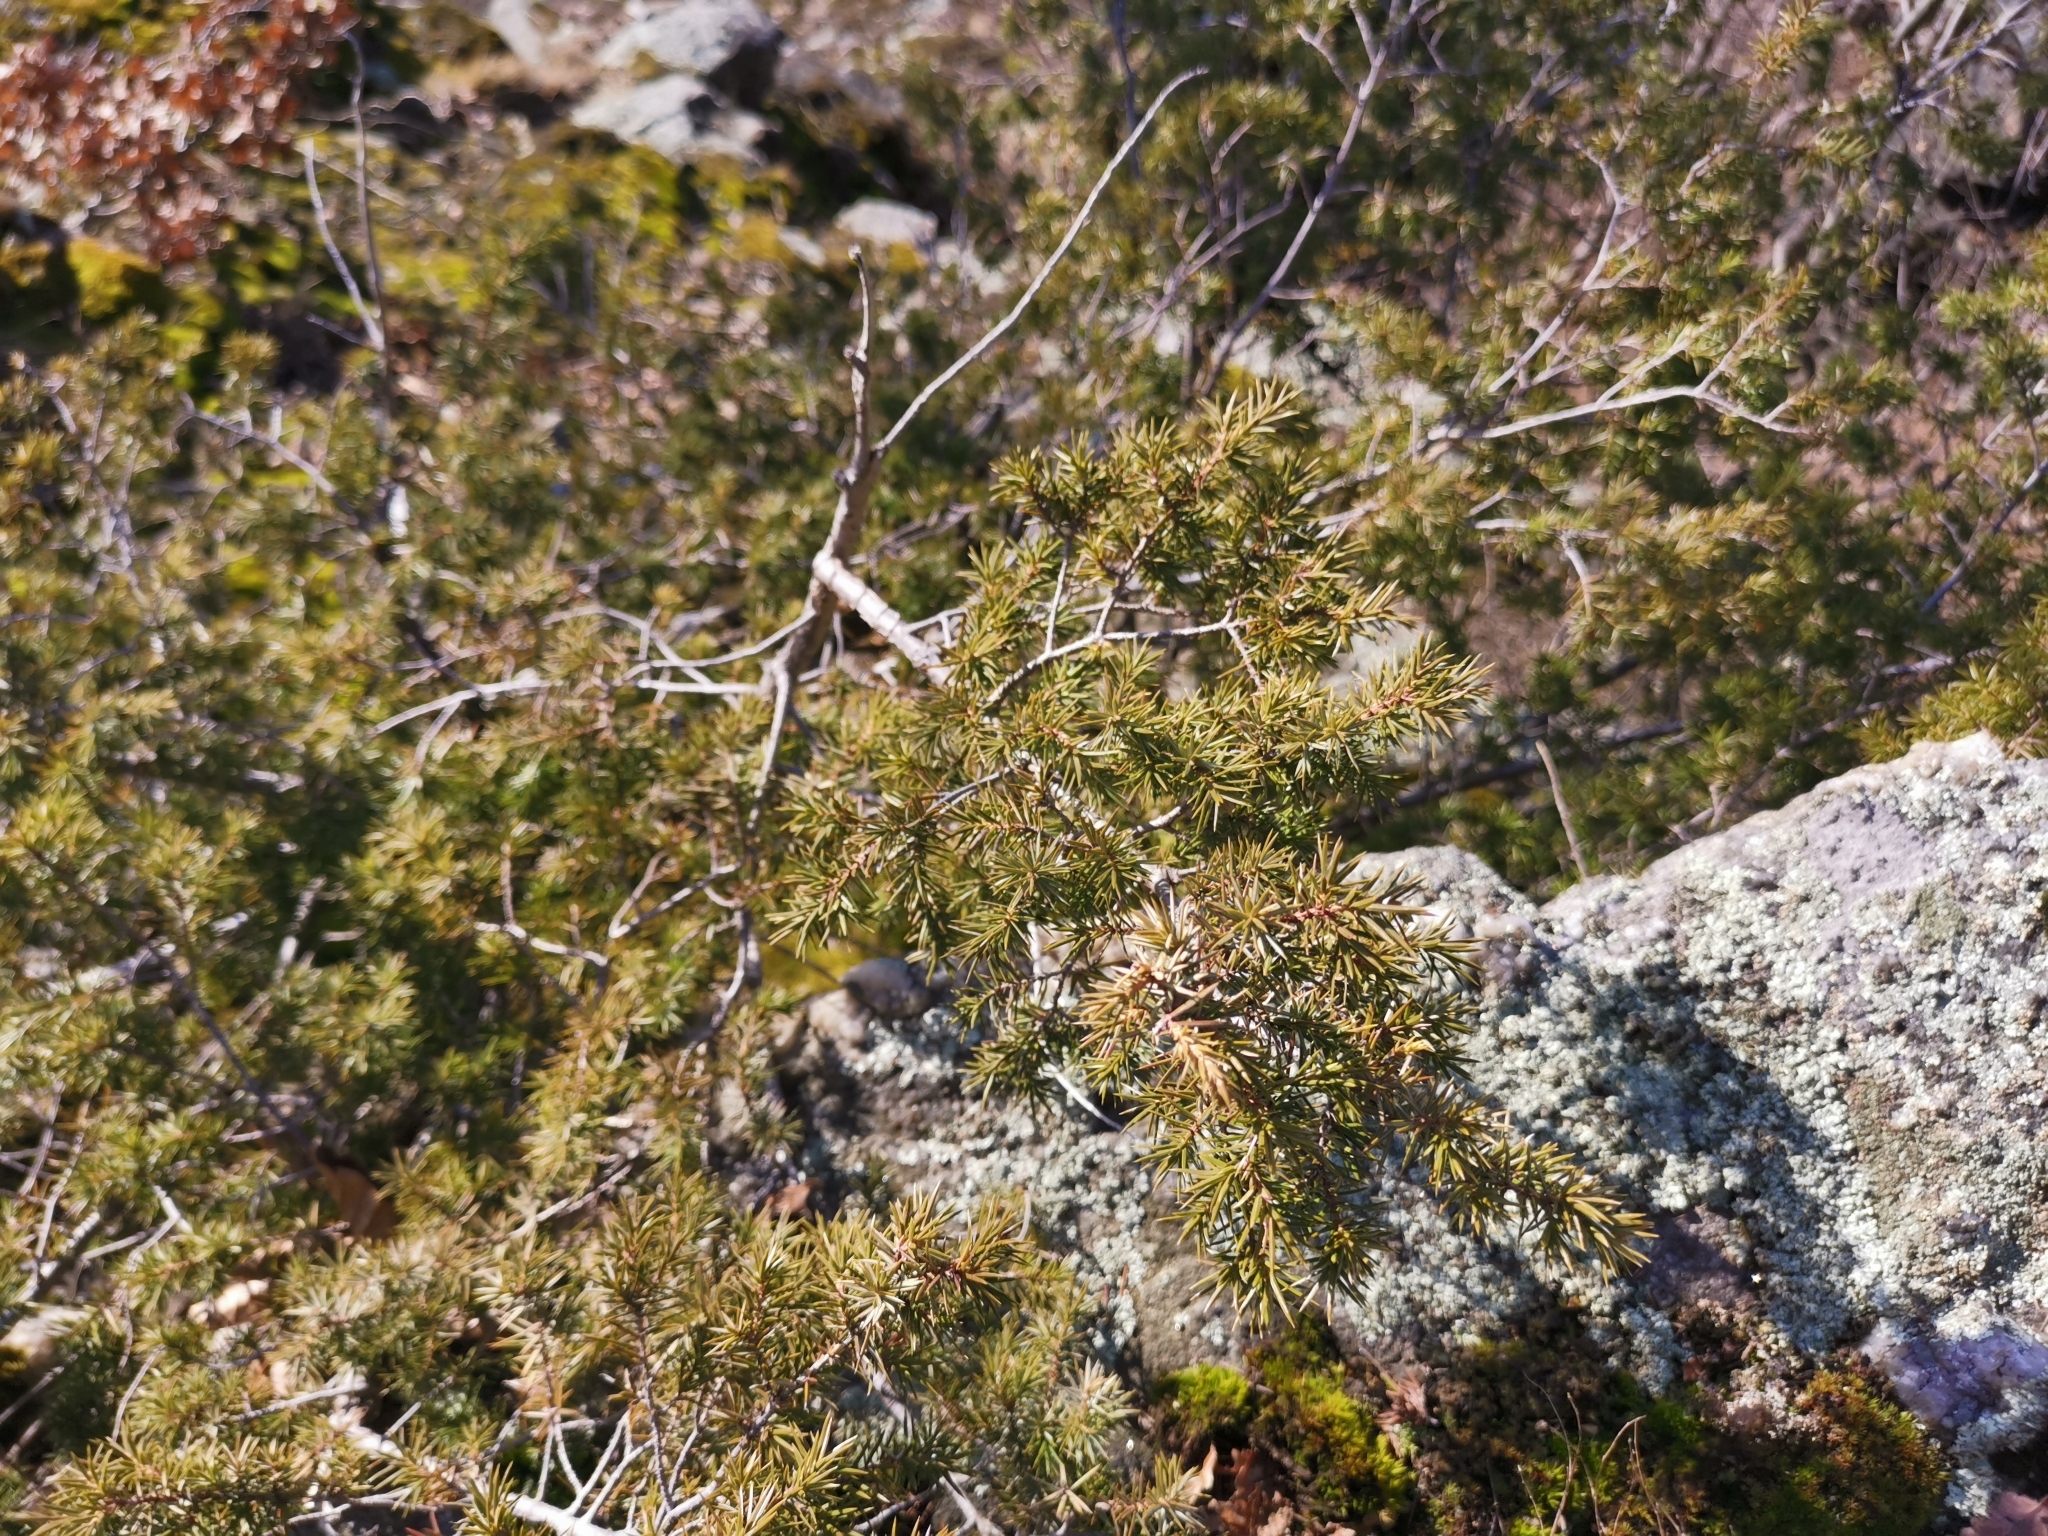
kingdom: Plantae
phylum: Tracheophyta
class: Pinopsida
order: Pinales
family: Cupressaceae
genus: Juniperus
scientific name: Juniperus communis
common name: Common juniper
